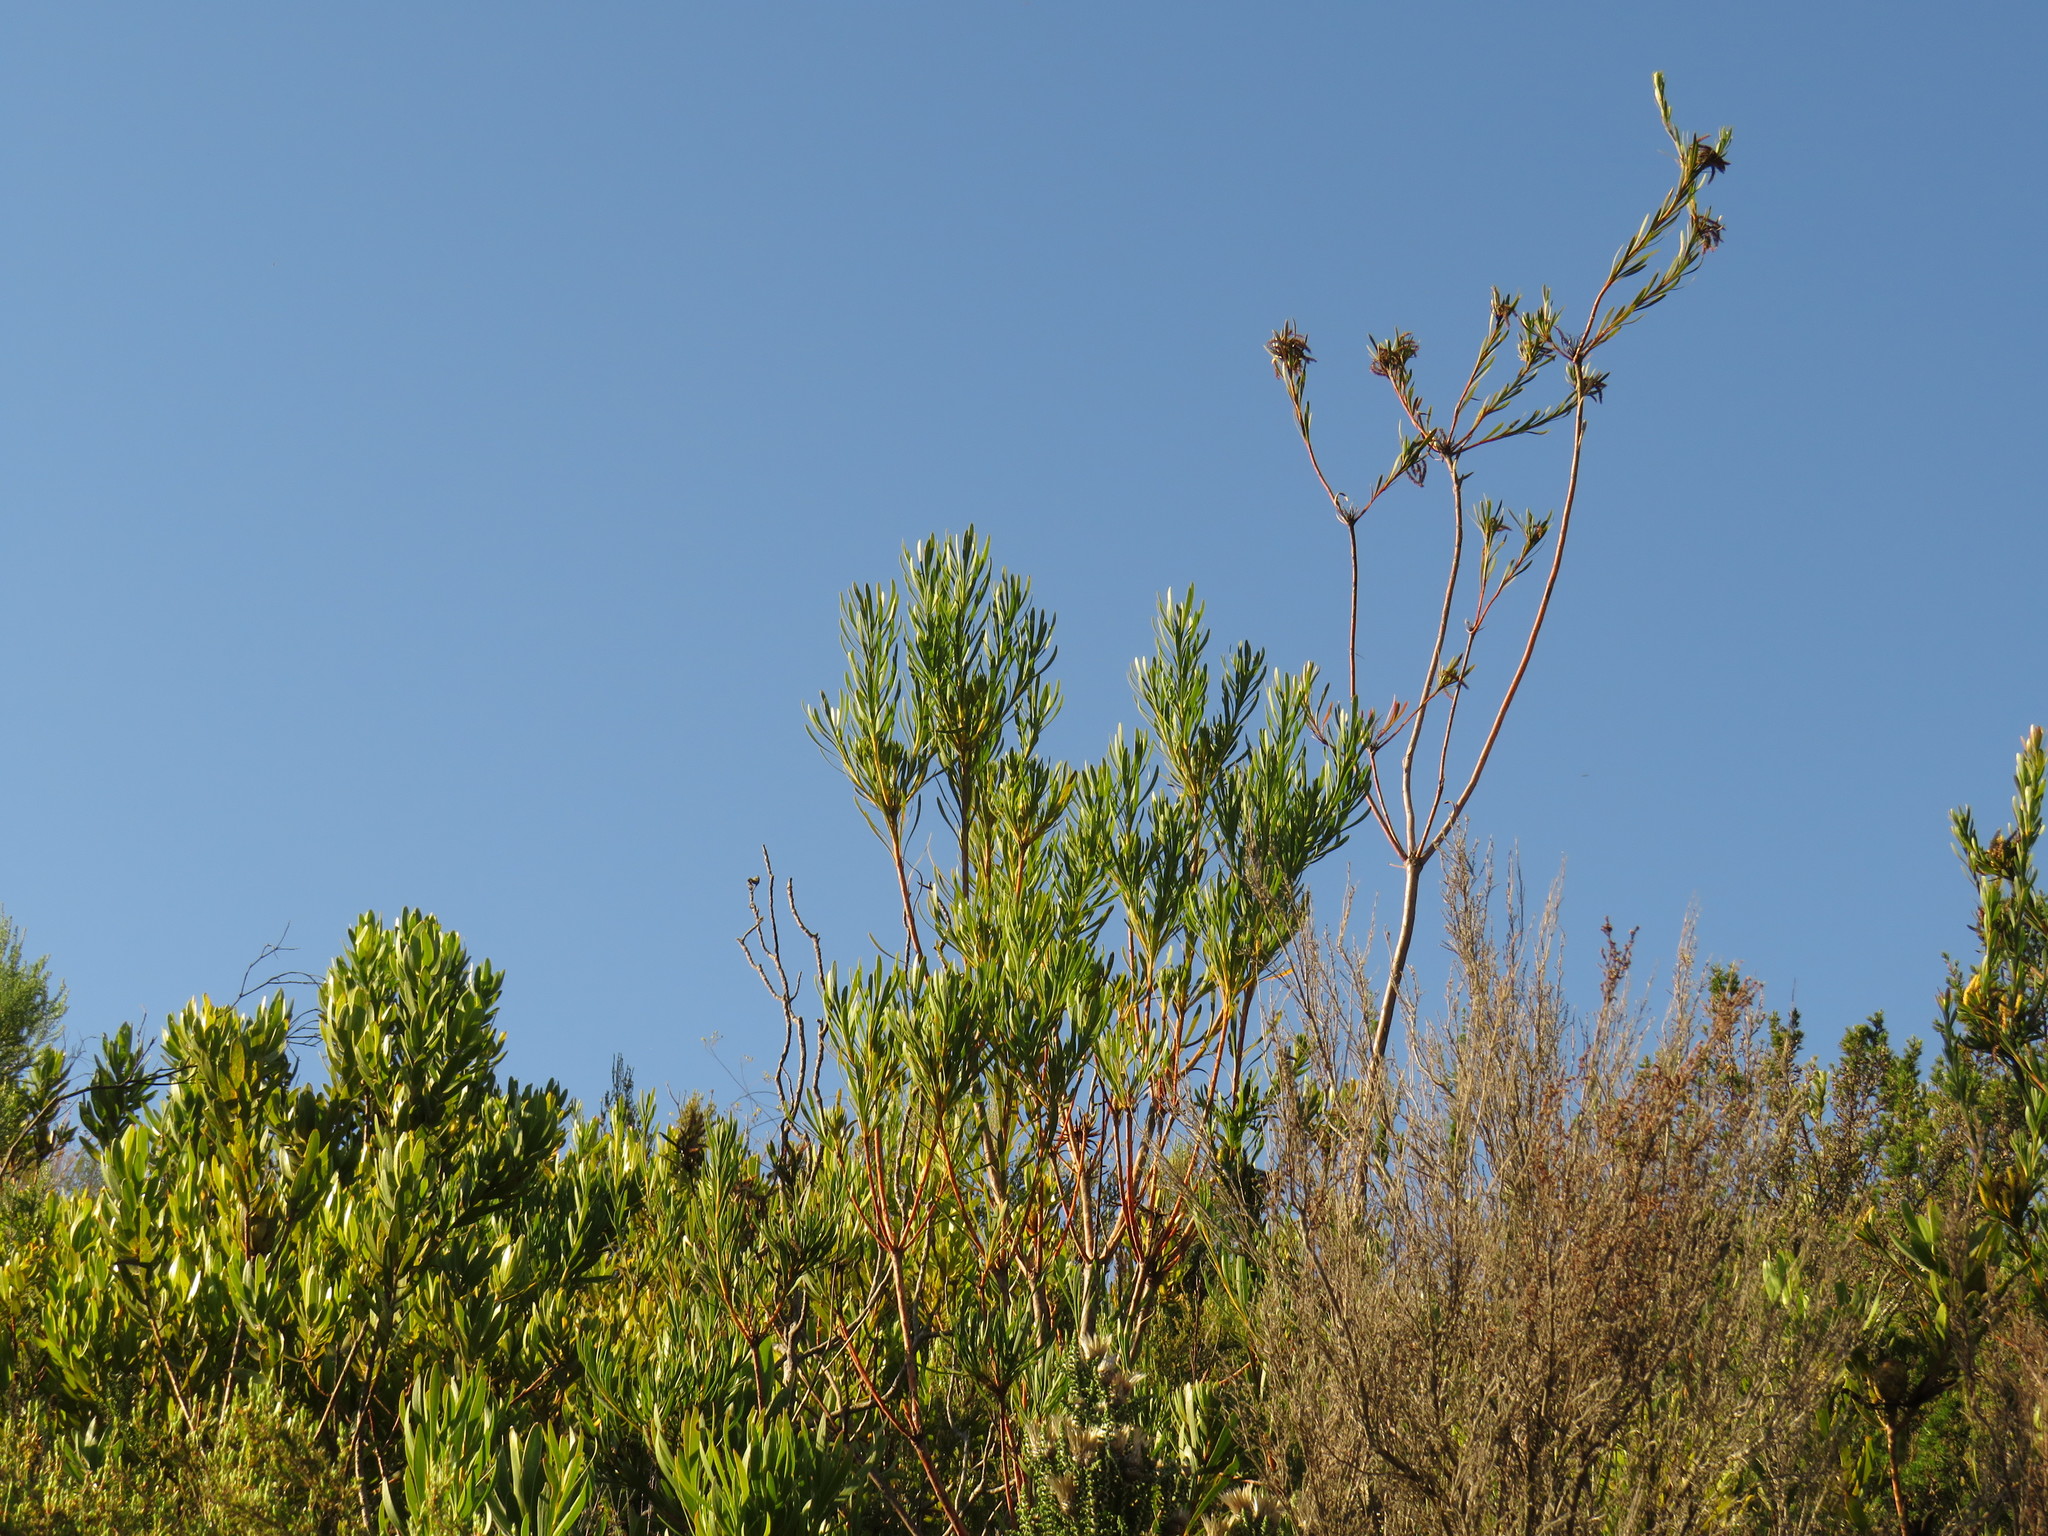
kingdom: Plantae
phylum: Tracheophyta
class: Magnoliopsida
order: Proteales
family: Proteaceae
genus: Aulax
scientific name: Aulax umbellata
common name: Broad-leaf featherbush
